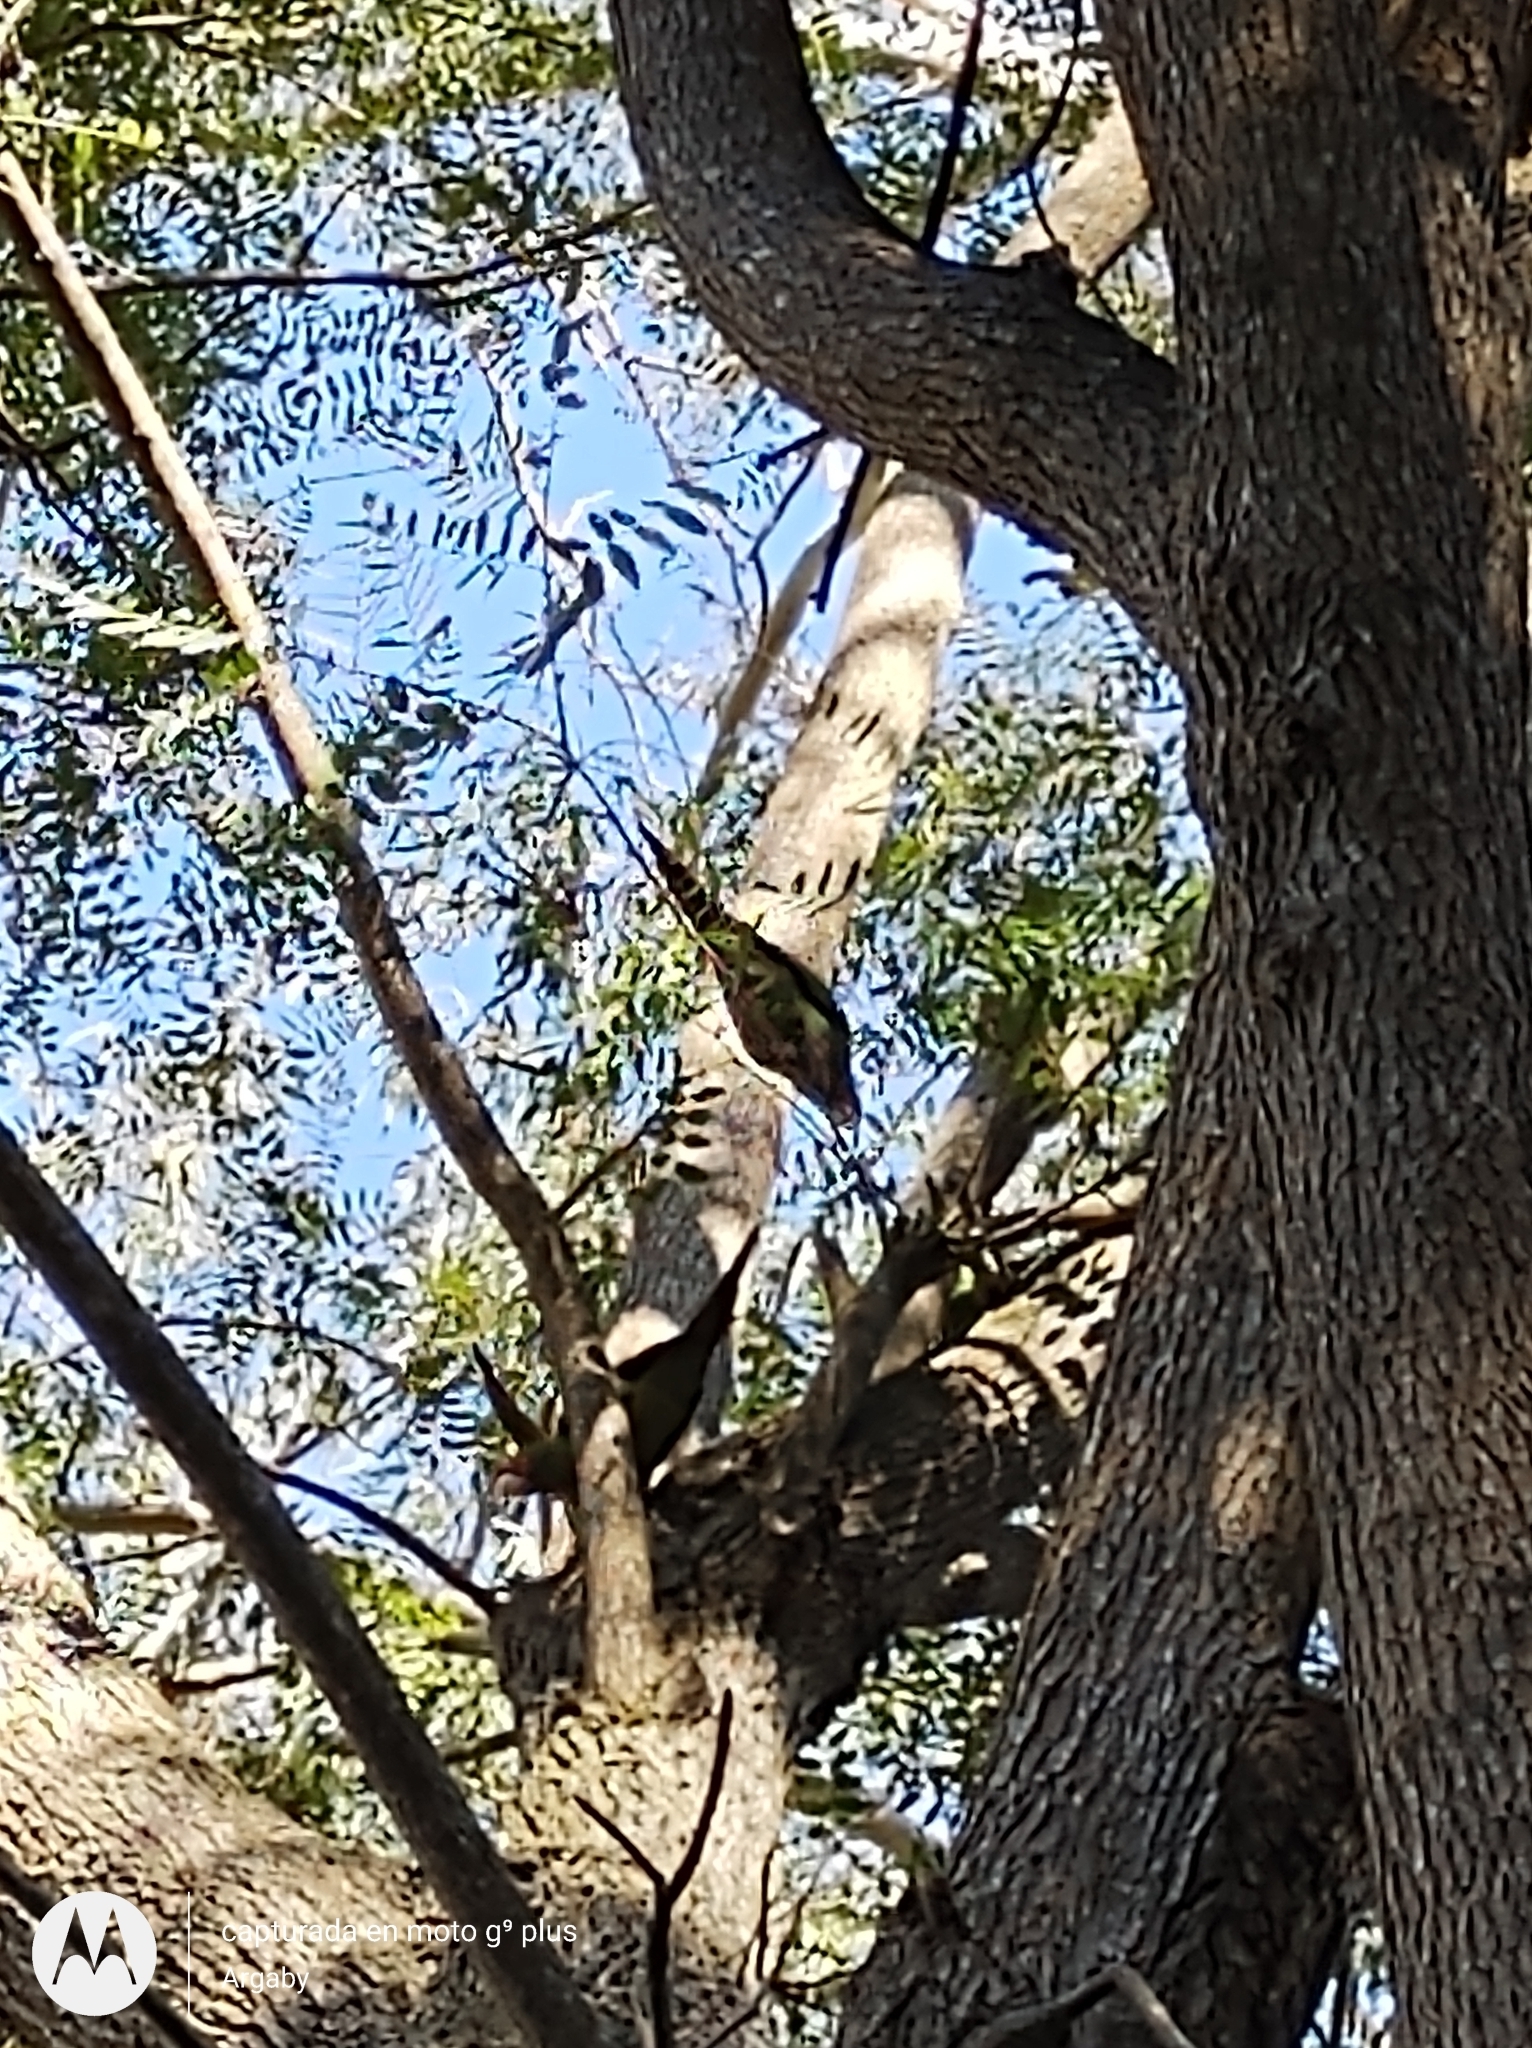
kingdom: Animalia
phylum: Chordata
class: Aves
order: Psittaciformes
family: Psittacidae
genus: Aratinga
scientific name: Aratinga mitrata
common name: Mitred parakeet
